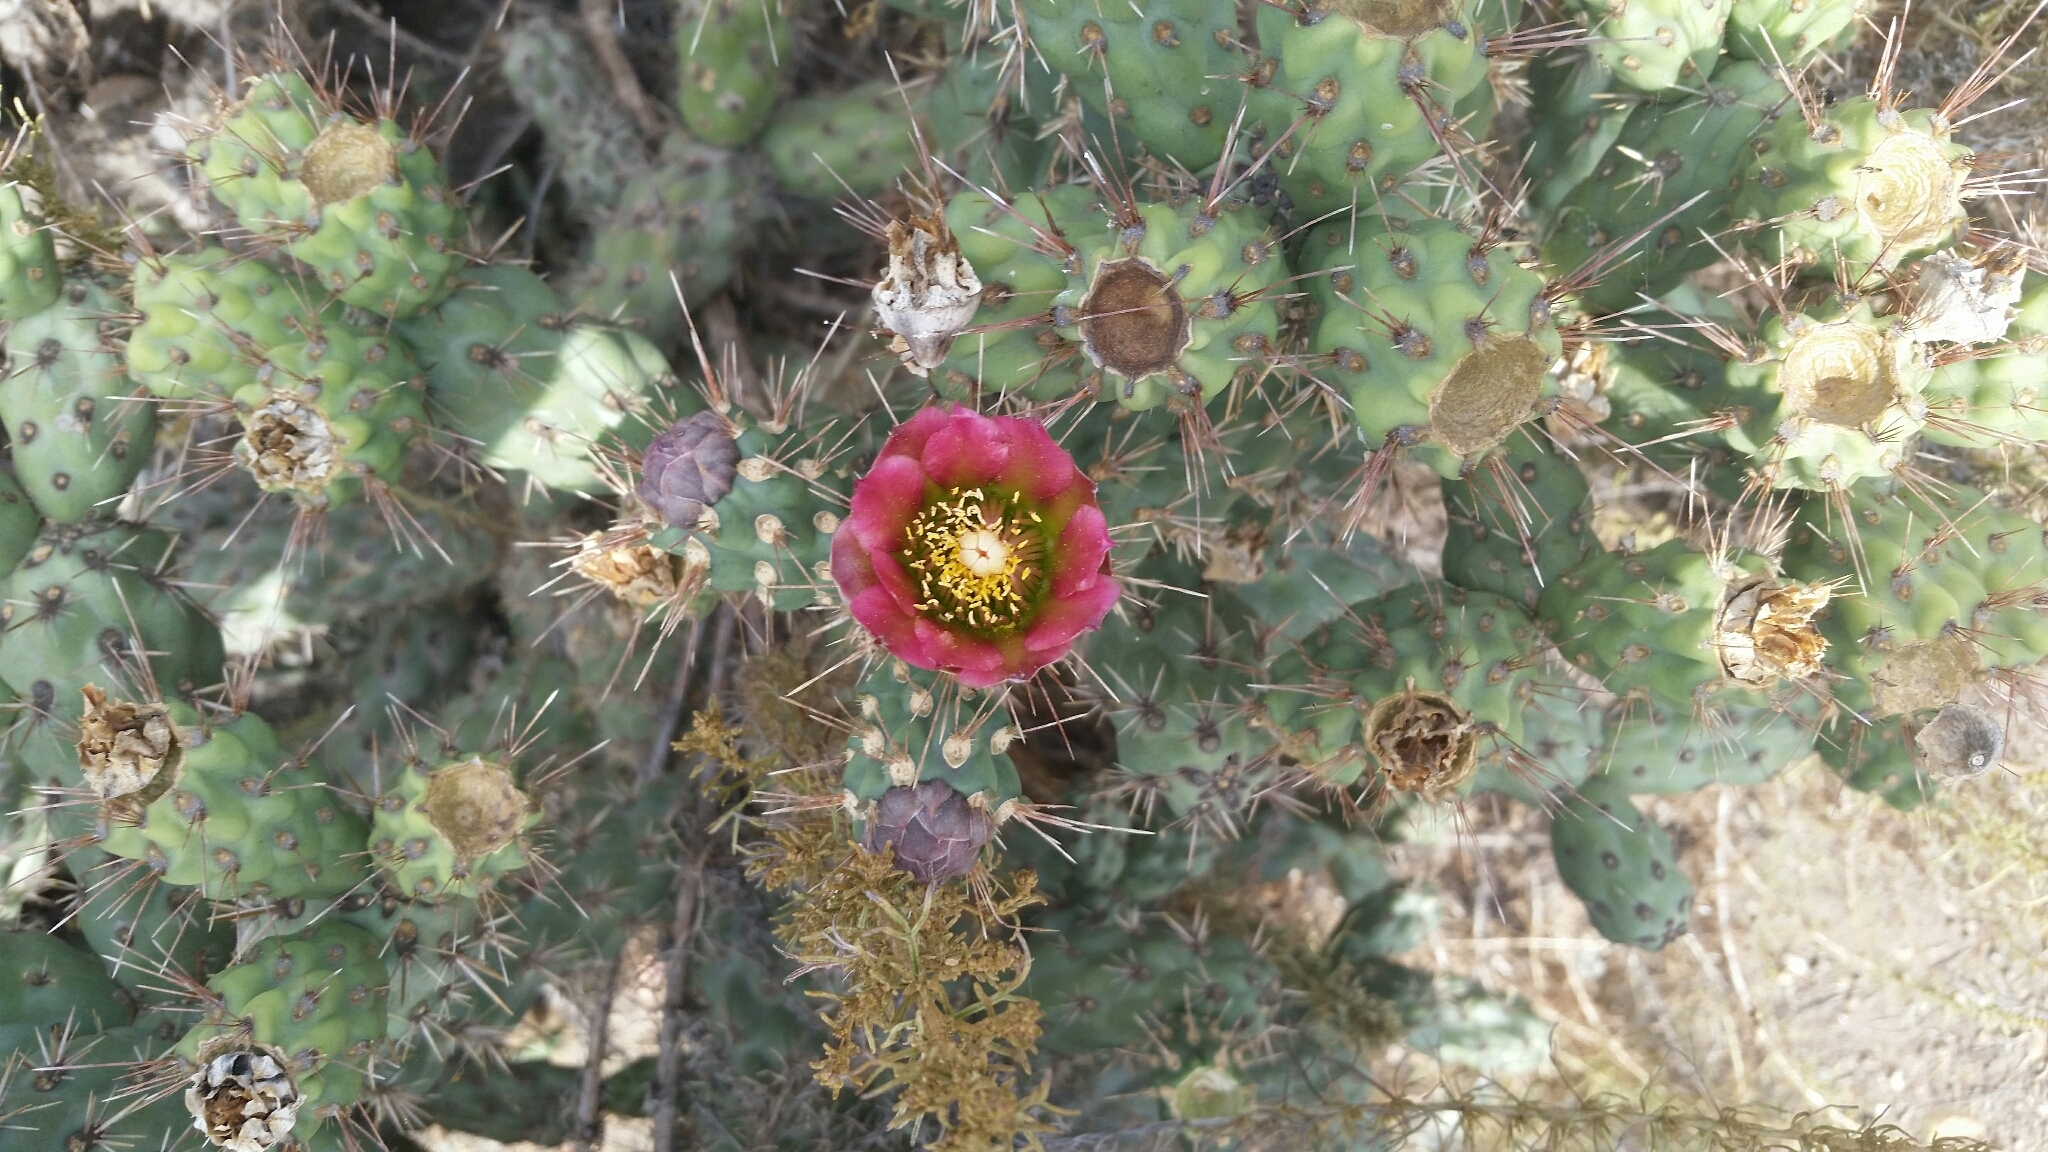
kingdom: Plantae
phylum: Tracheophyta
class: Magnoliopsida
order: Caryophyllales
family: Cactaceae
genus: Cylindropuntia
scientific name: Cylindropuntia prolifera
